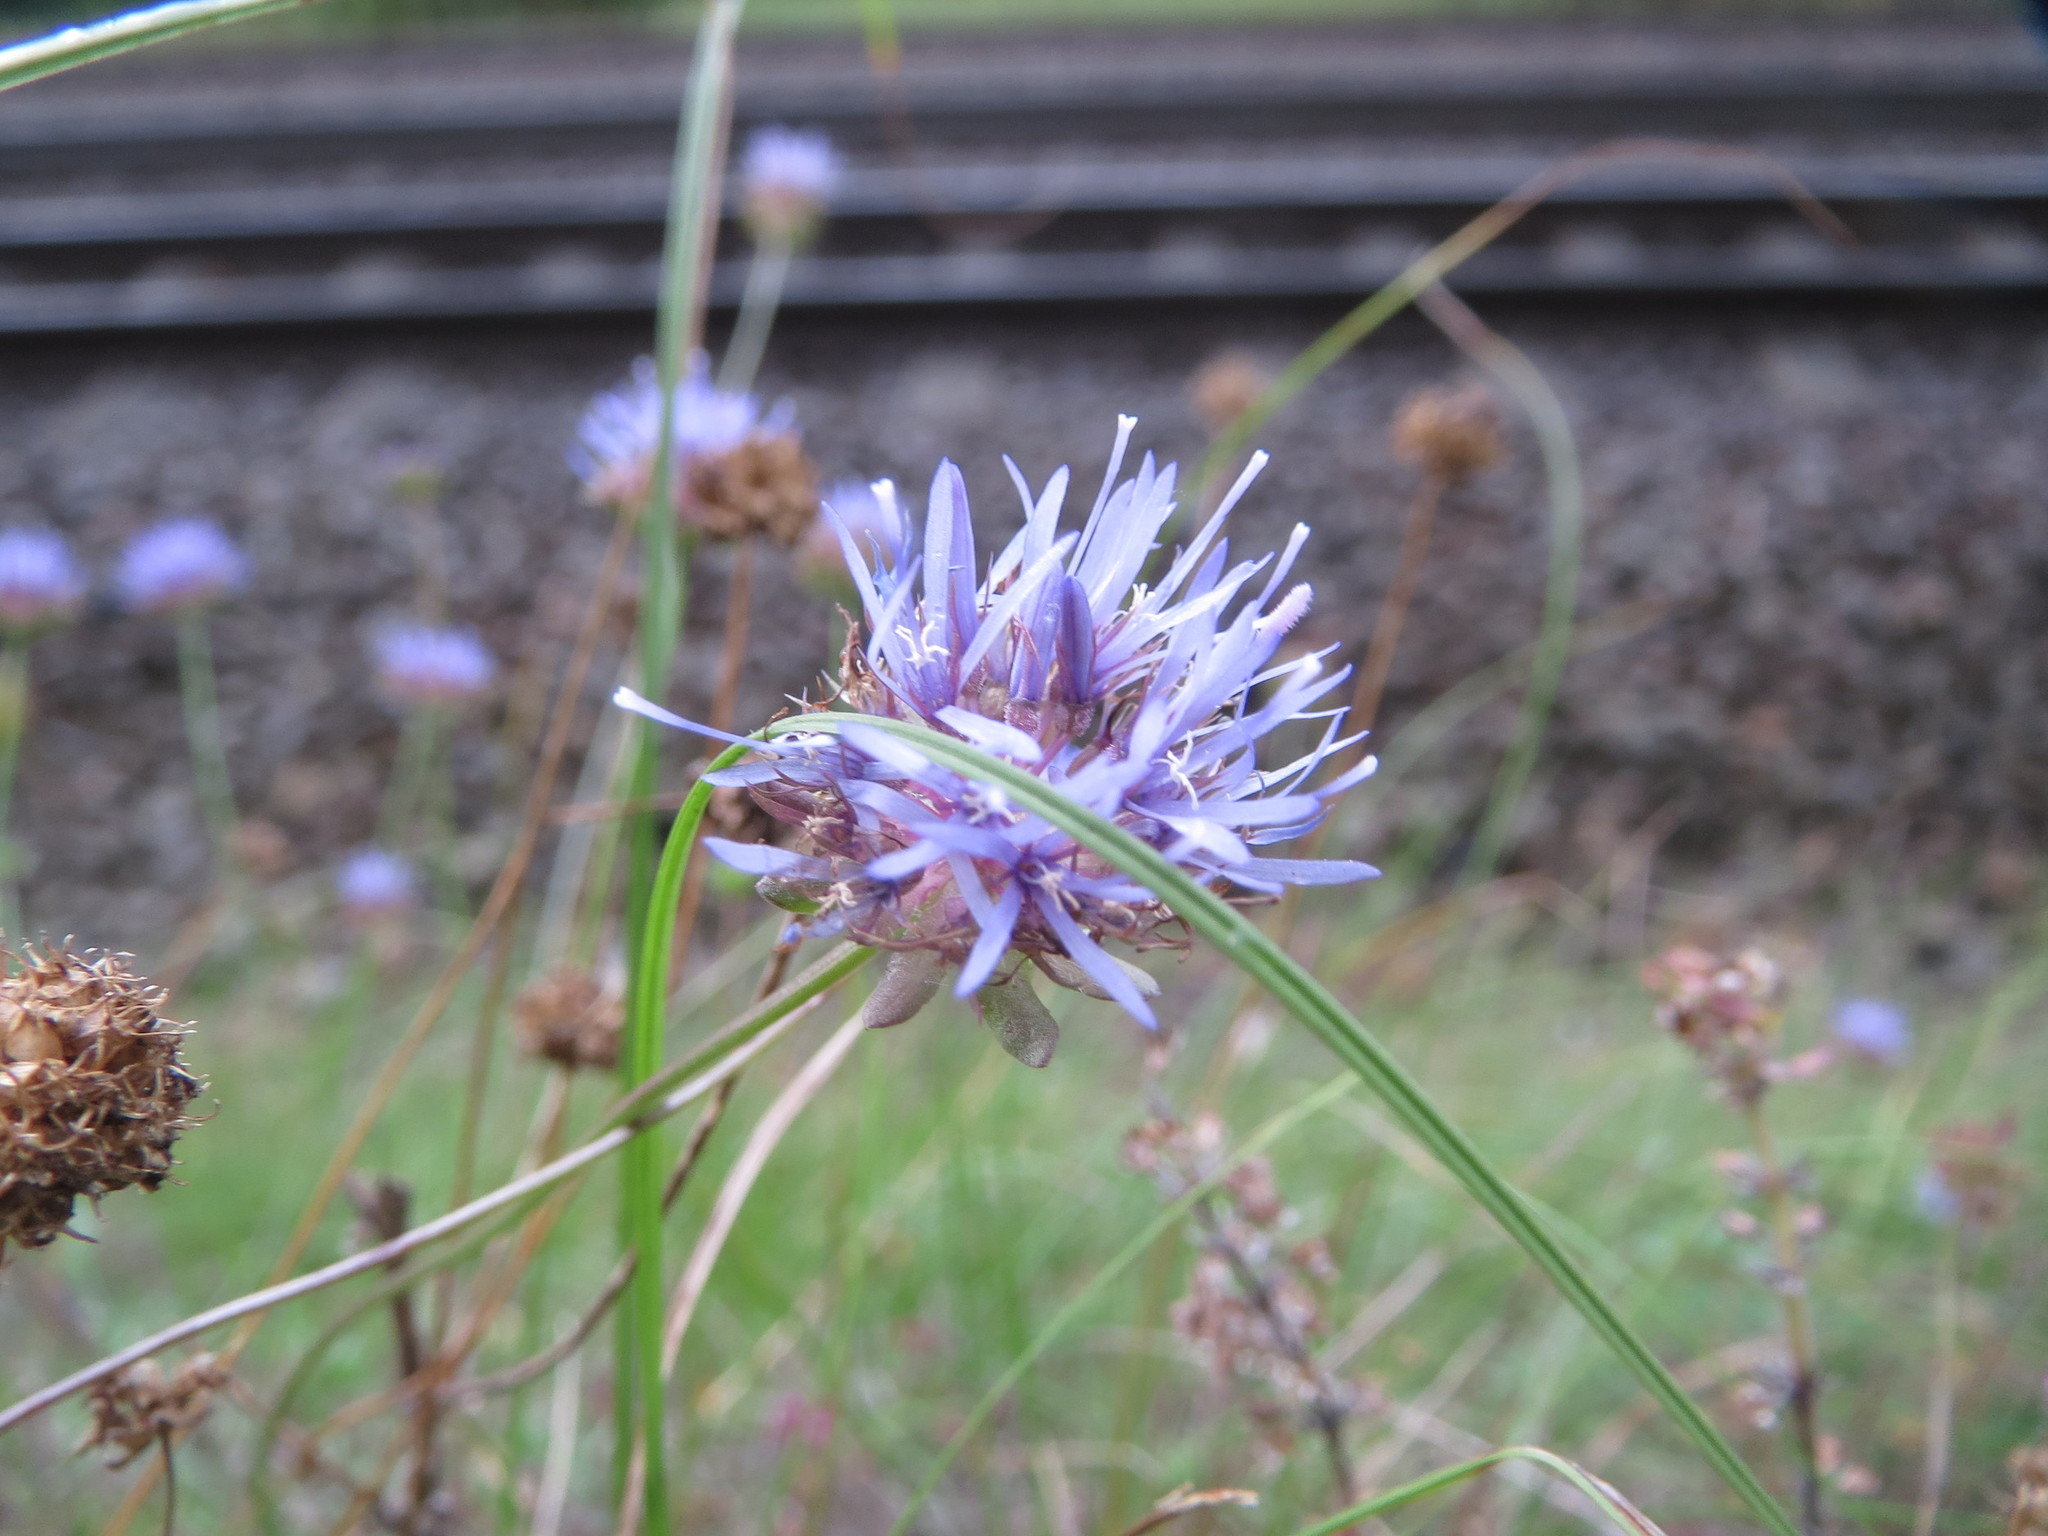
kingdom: Plantae
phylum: Tracheophyta
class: Magnoliopsida
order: Asterales
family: Campanulaceae
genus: Jasione
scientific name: Jasione montana
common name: Sheep's-bit
